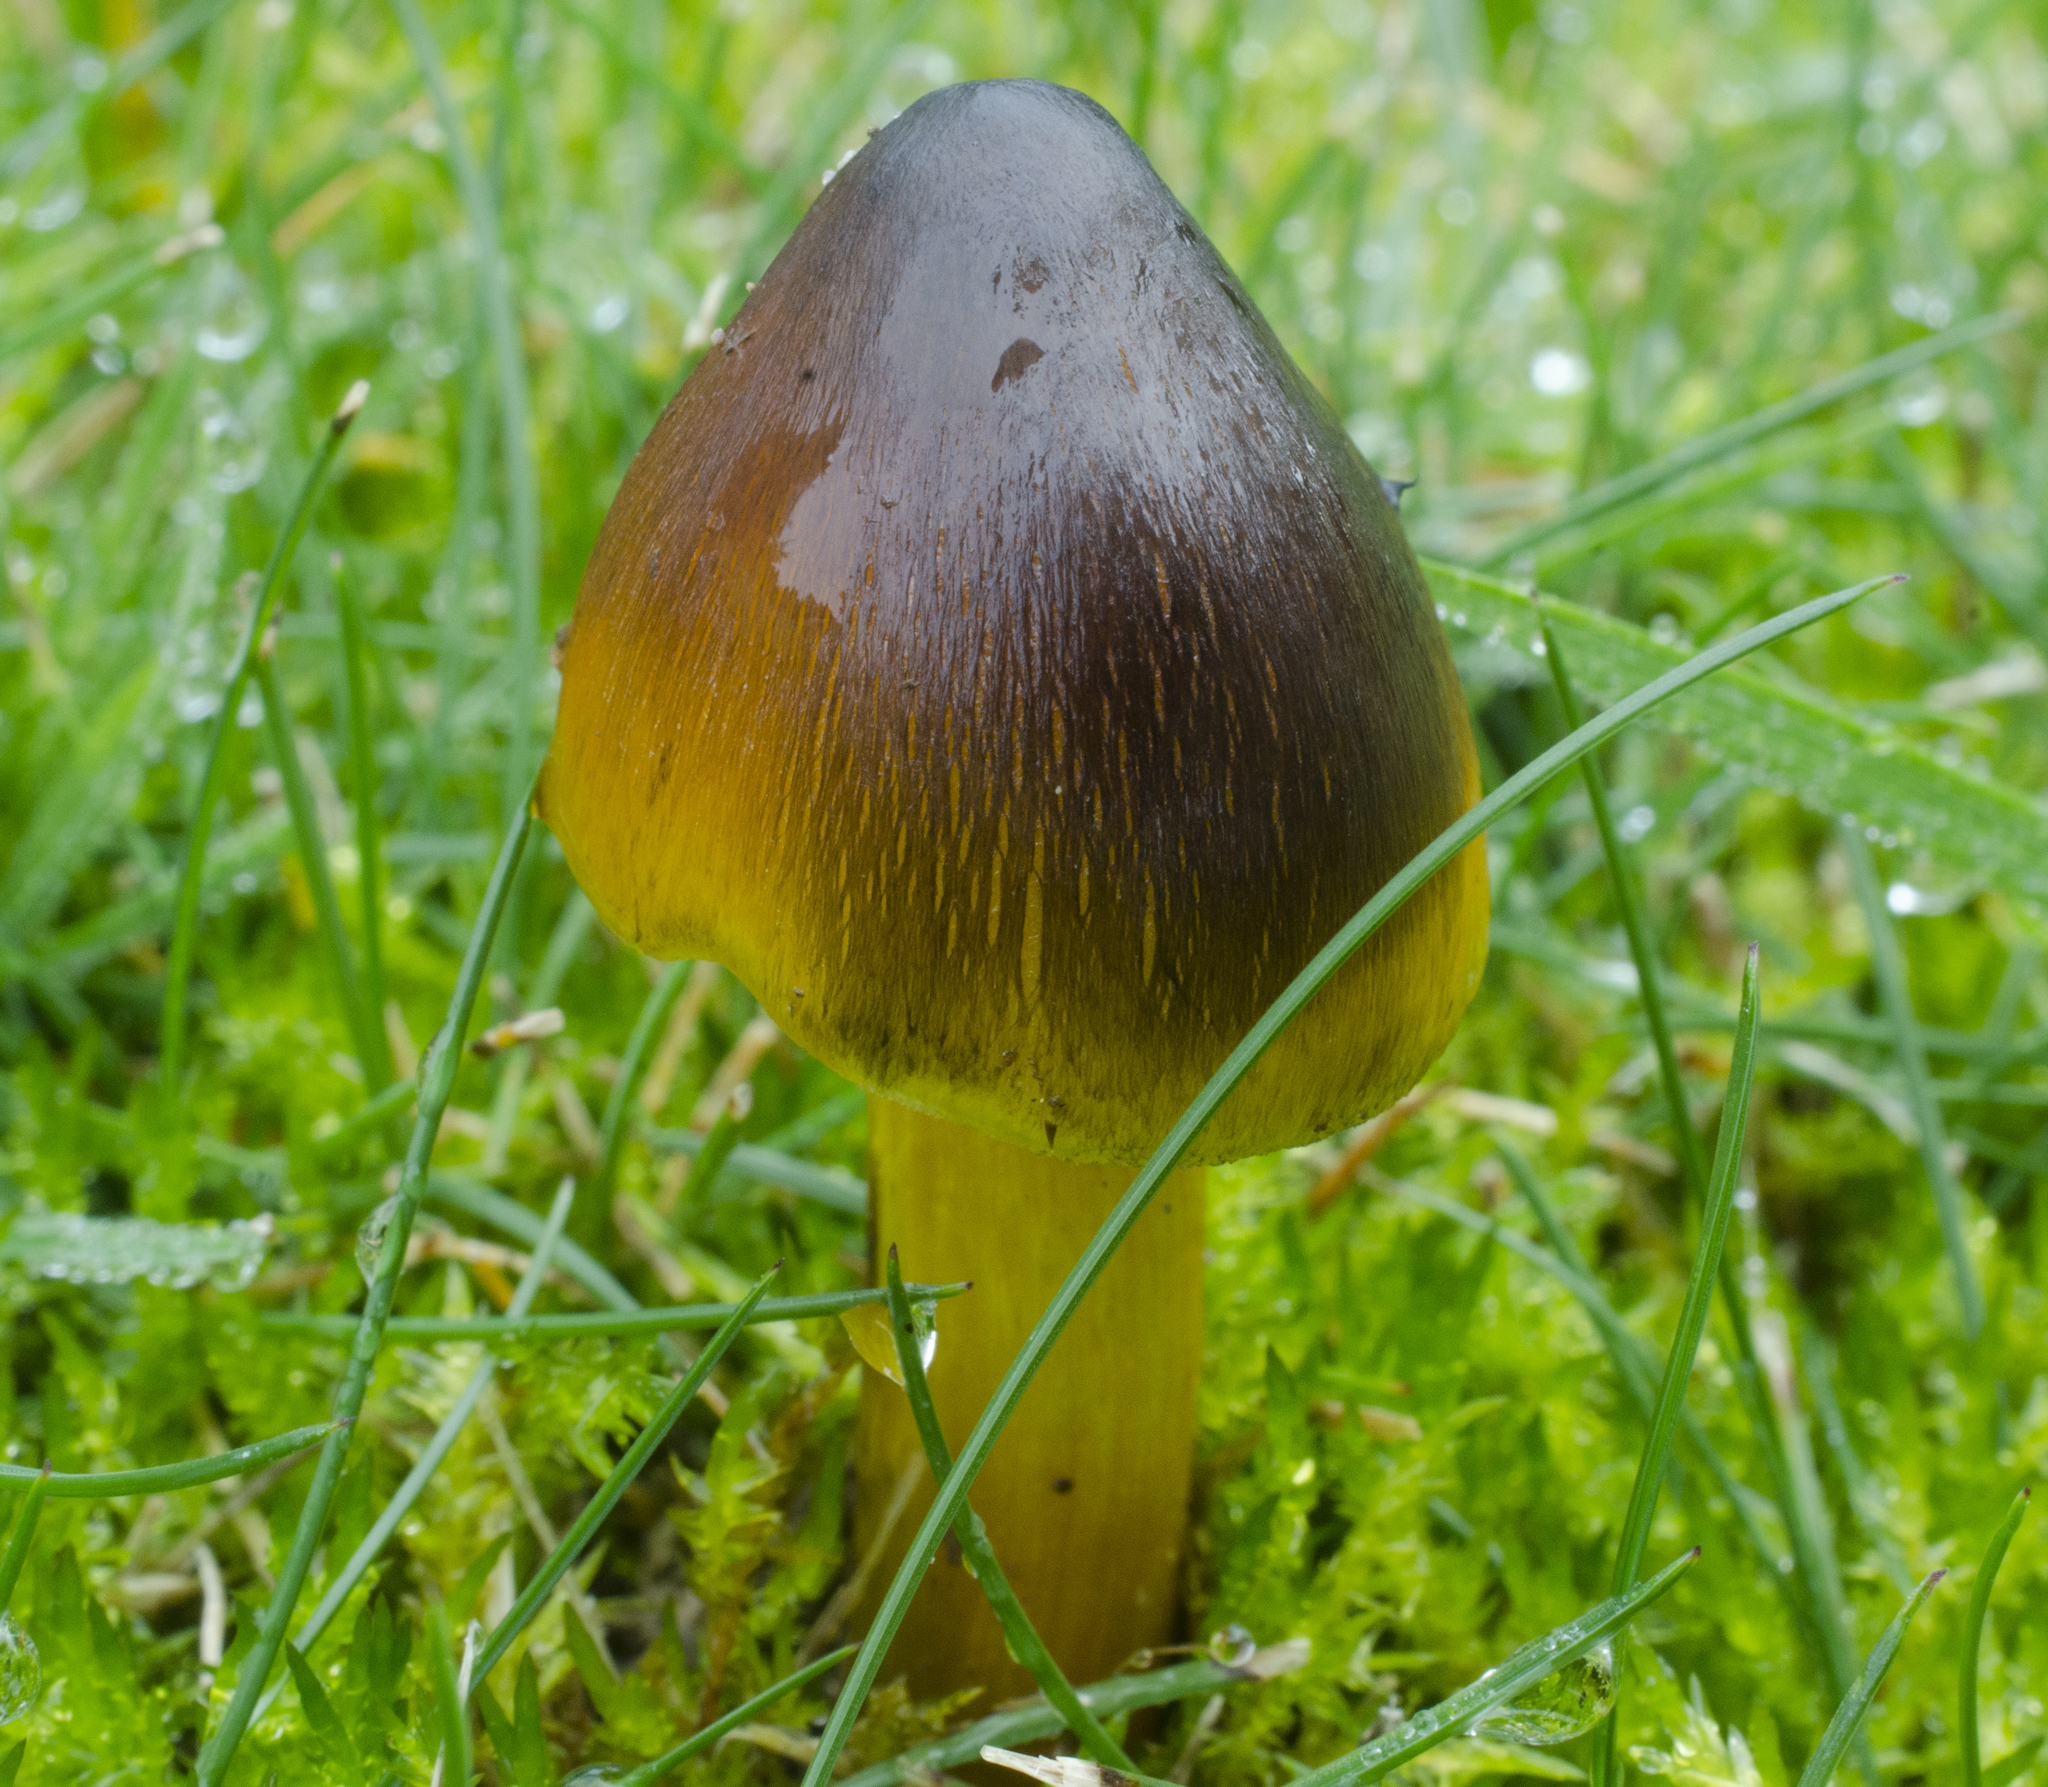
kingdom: Fungi
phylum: Basidiomycota
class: Agaricomycetes
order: Agaricales
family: Hygrophoraceae
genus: Hygrocybe
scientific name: Hygrocybe singeri
